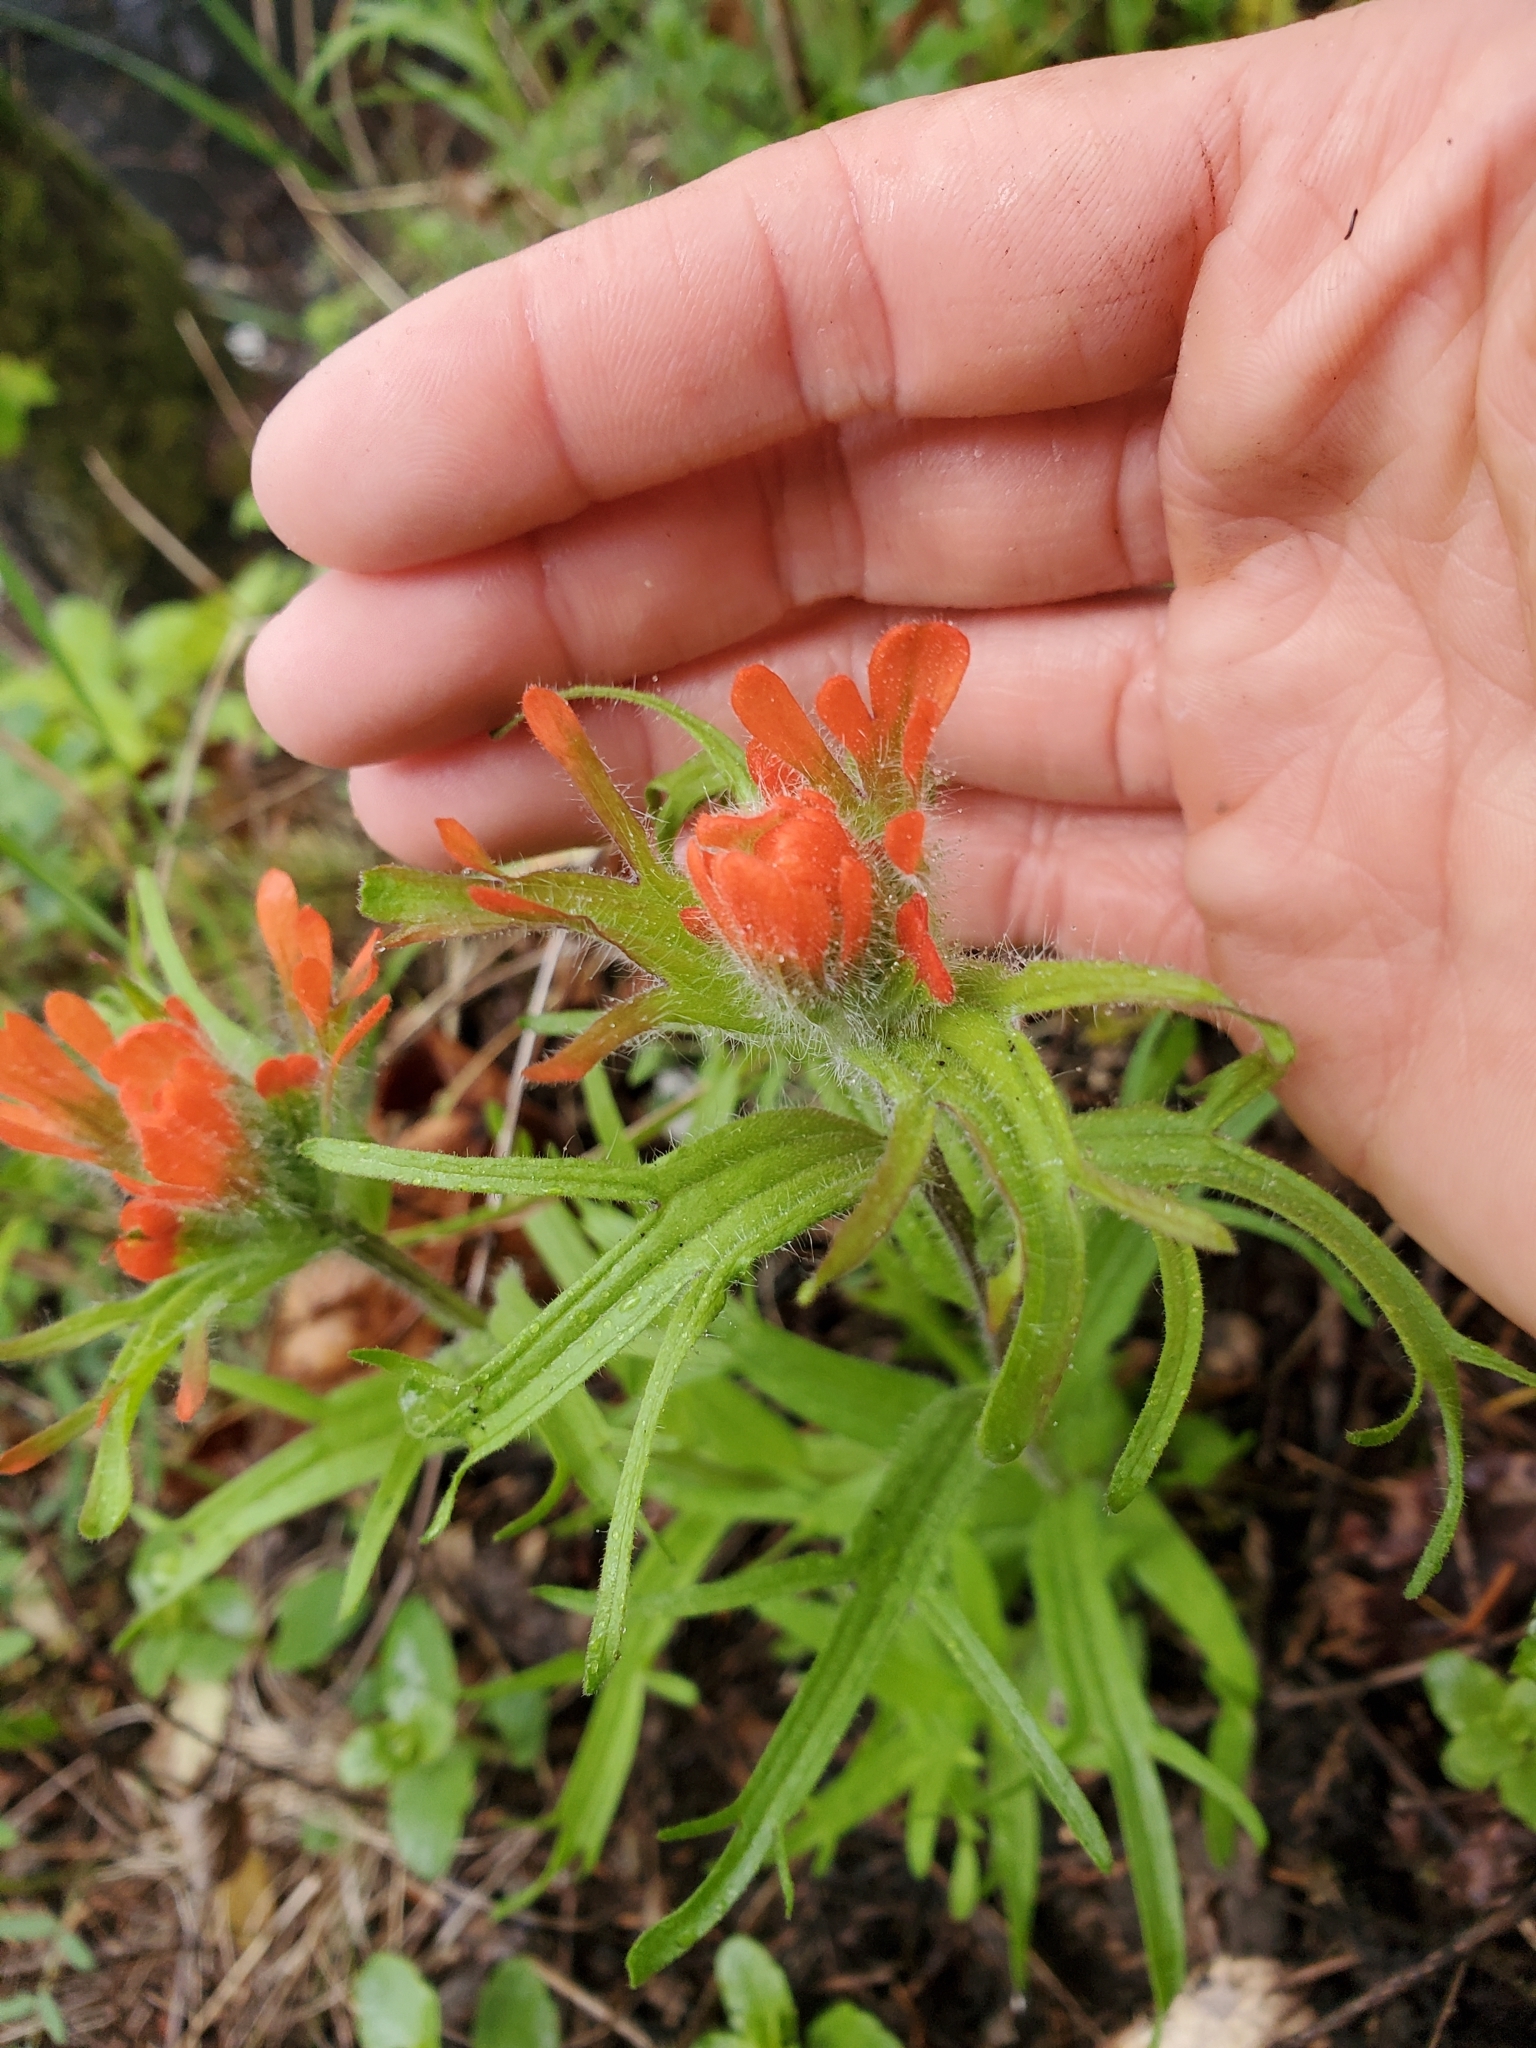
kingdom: Plantae
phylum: Tracheophyta
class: Magnoliopsida
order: Lamiales
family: Orobanchaceae
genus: Castilleja
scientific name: Castilleja hispida
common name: Bristly paintbrush
